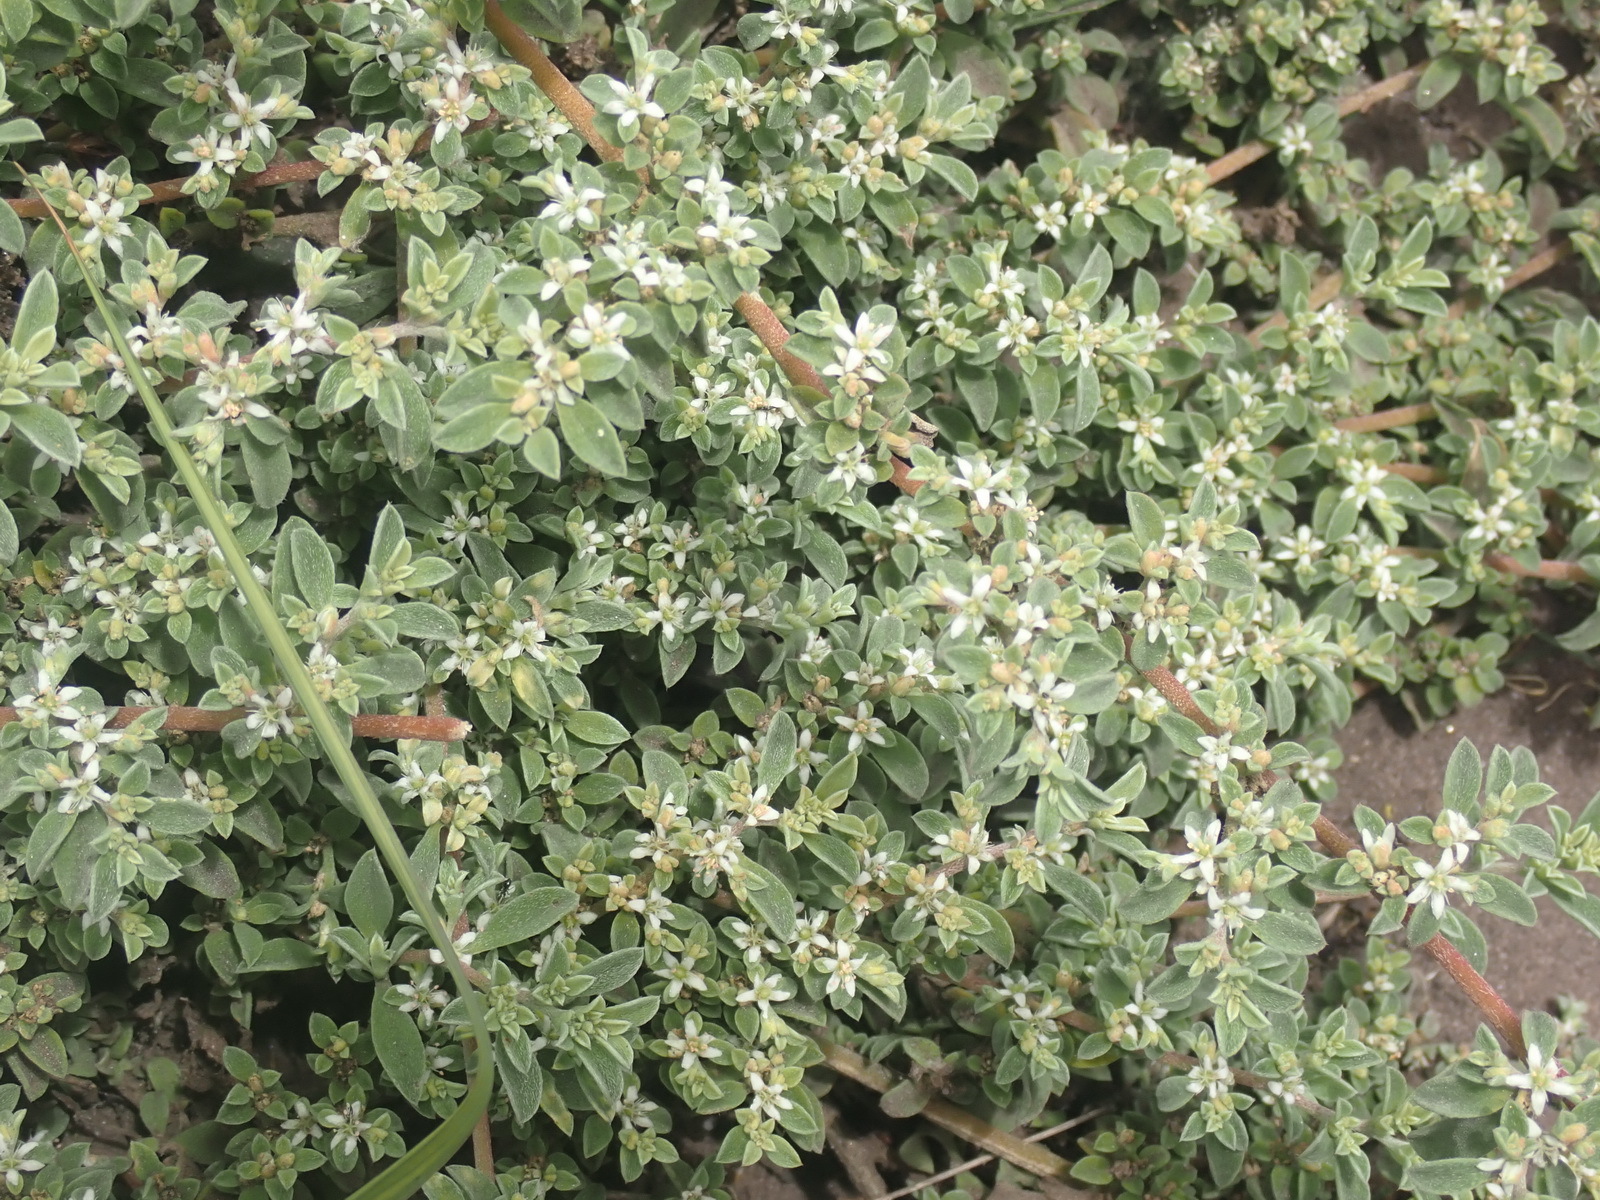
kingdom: Plantae
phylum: Tracheophyta
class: Magnoliopsida
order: Caryophyllales
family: Aizoaceae
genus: Aizoon
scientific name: Aizoon pubescens
